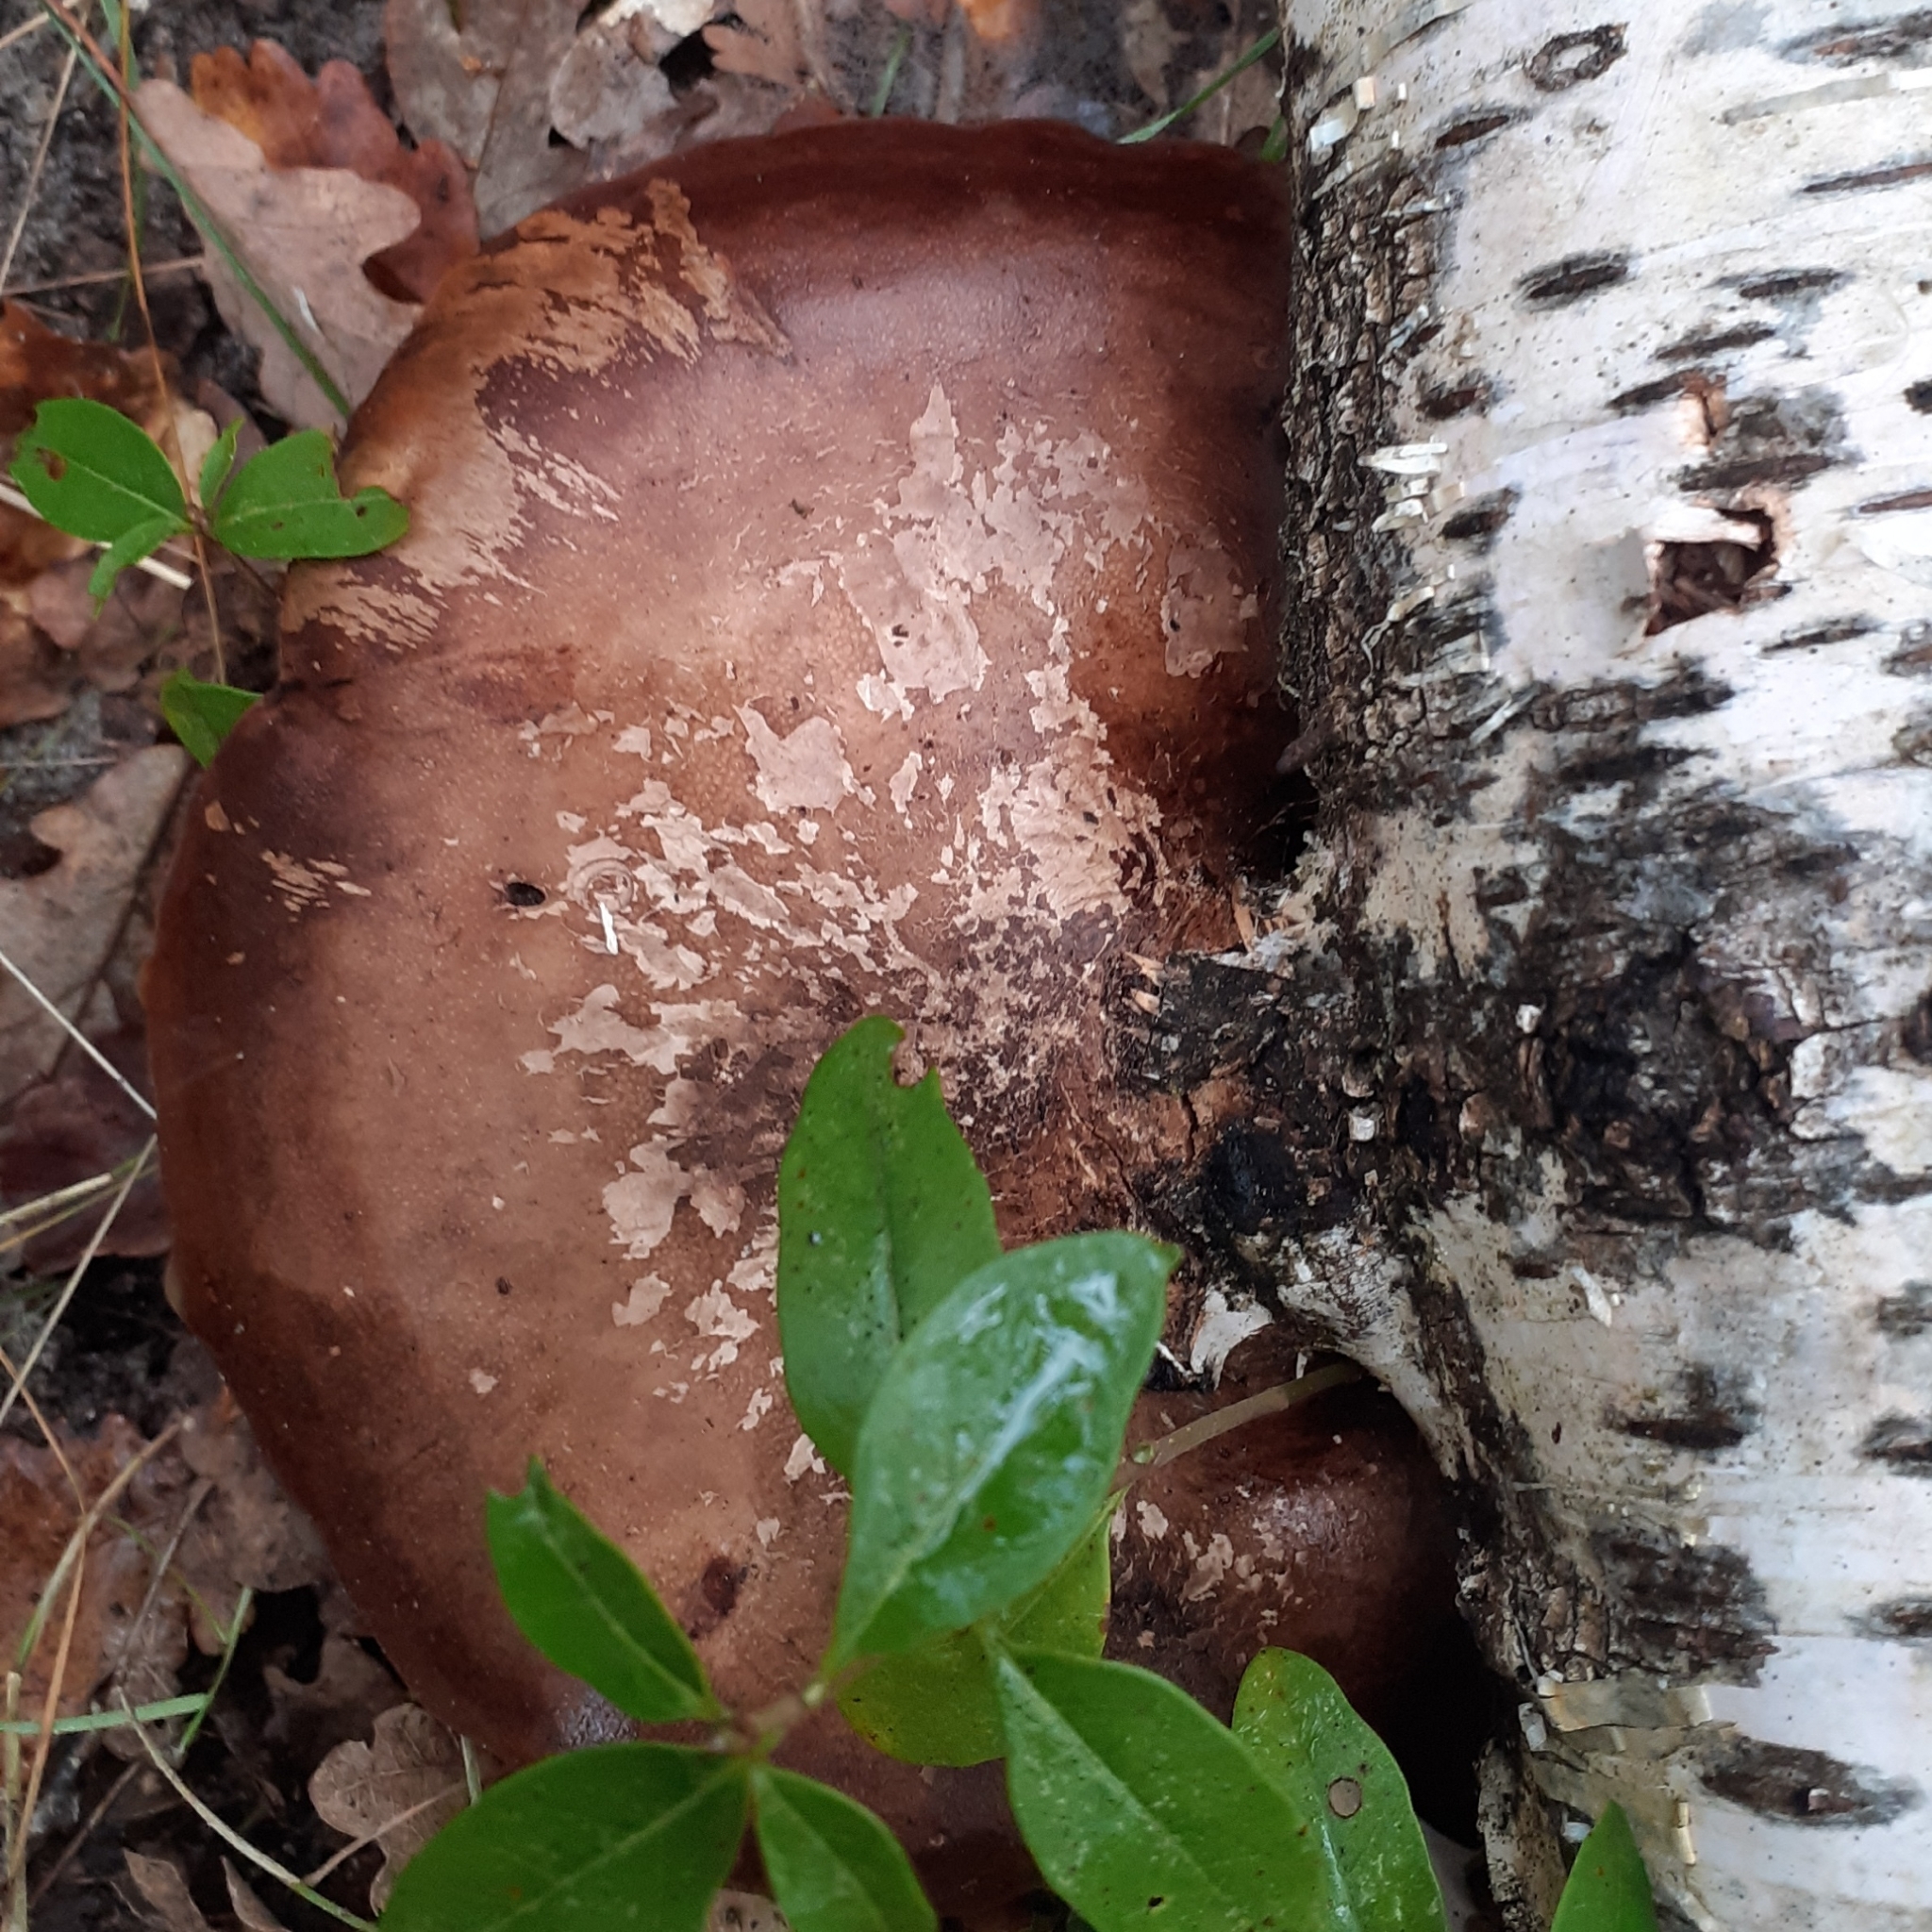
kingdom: Fungi
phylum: Basidiomycota
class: Agaricomycetes
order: Polyporales
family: Fomitopsidaceae
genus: Fomitopsis
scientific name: Fomitopsis betulina
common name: Birch polypore
